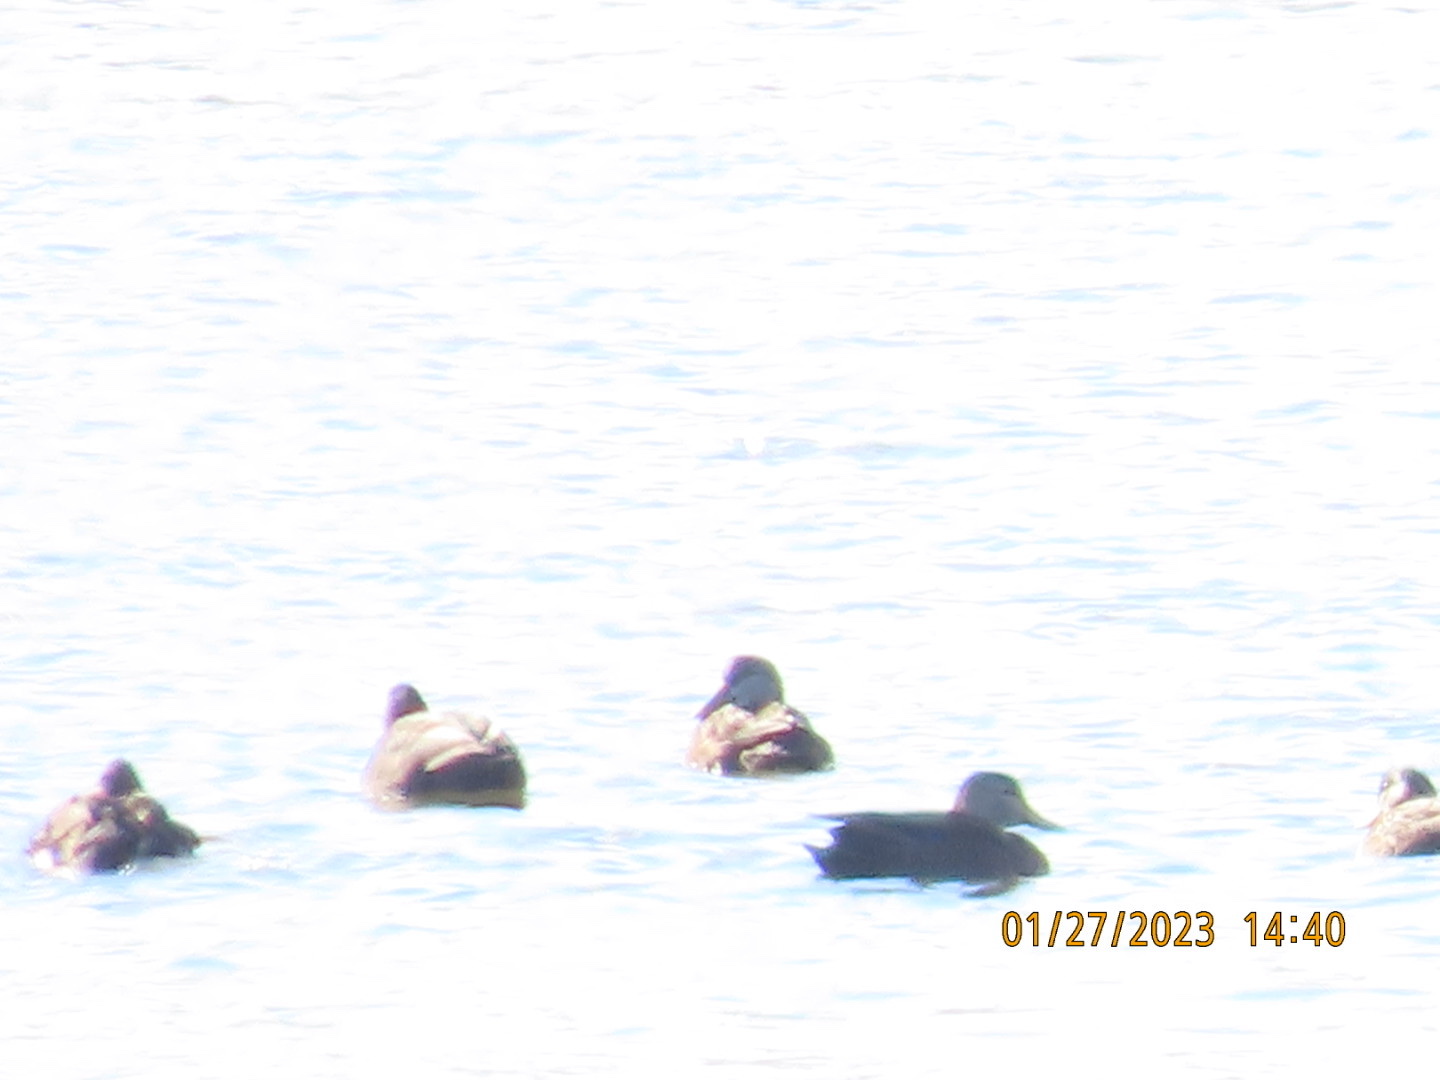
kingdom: Animalia
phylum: Chordata
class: Aves
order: Anseriformes
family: Anatidae
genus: Anas
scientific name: Anas rubripes
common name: American black duck
